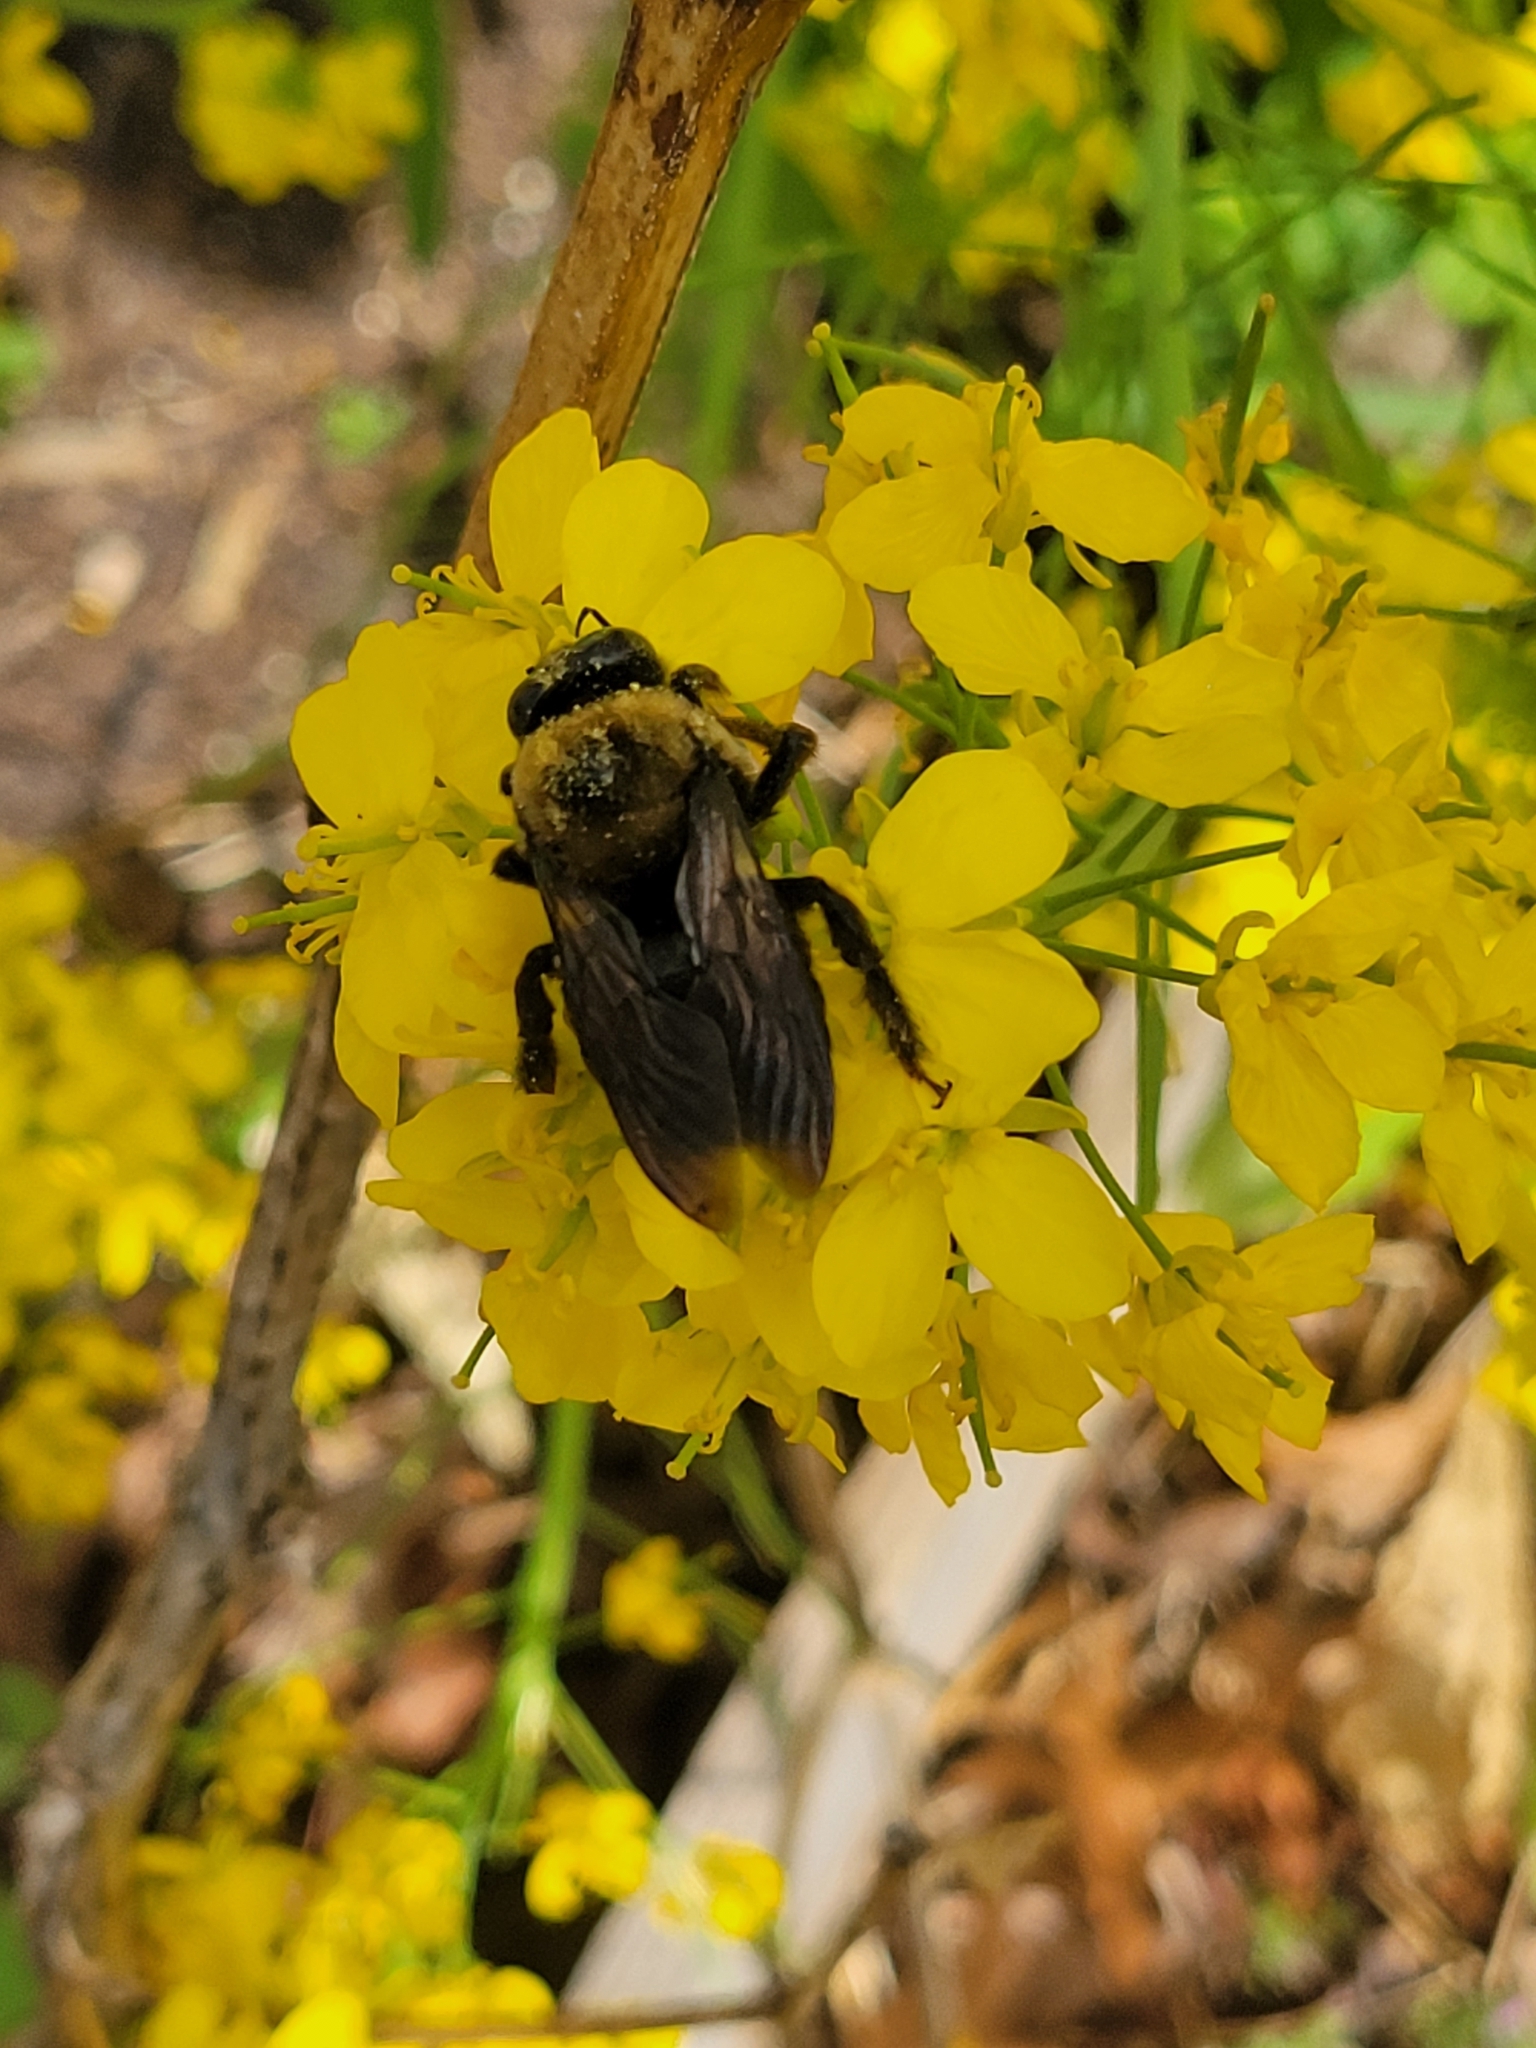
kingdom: Animalia
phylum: Arthropoda
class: Insecta
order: Hymenoptera
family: Apidae
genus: Xylocopa
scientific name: Xylocopa virginica
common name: Carpenter bee
